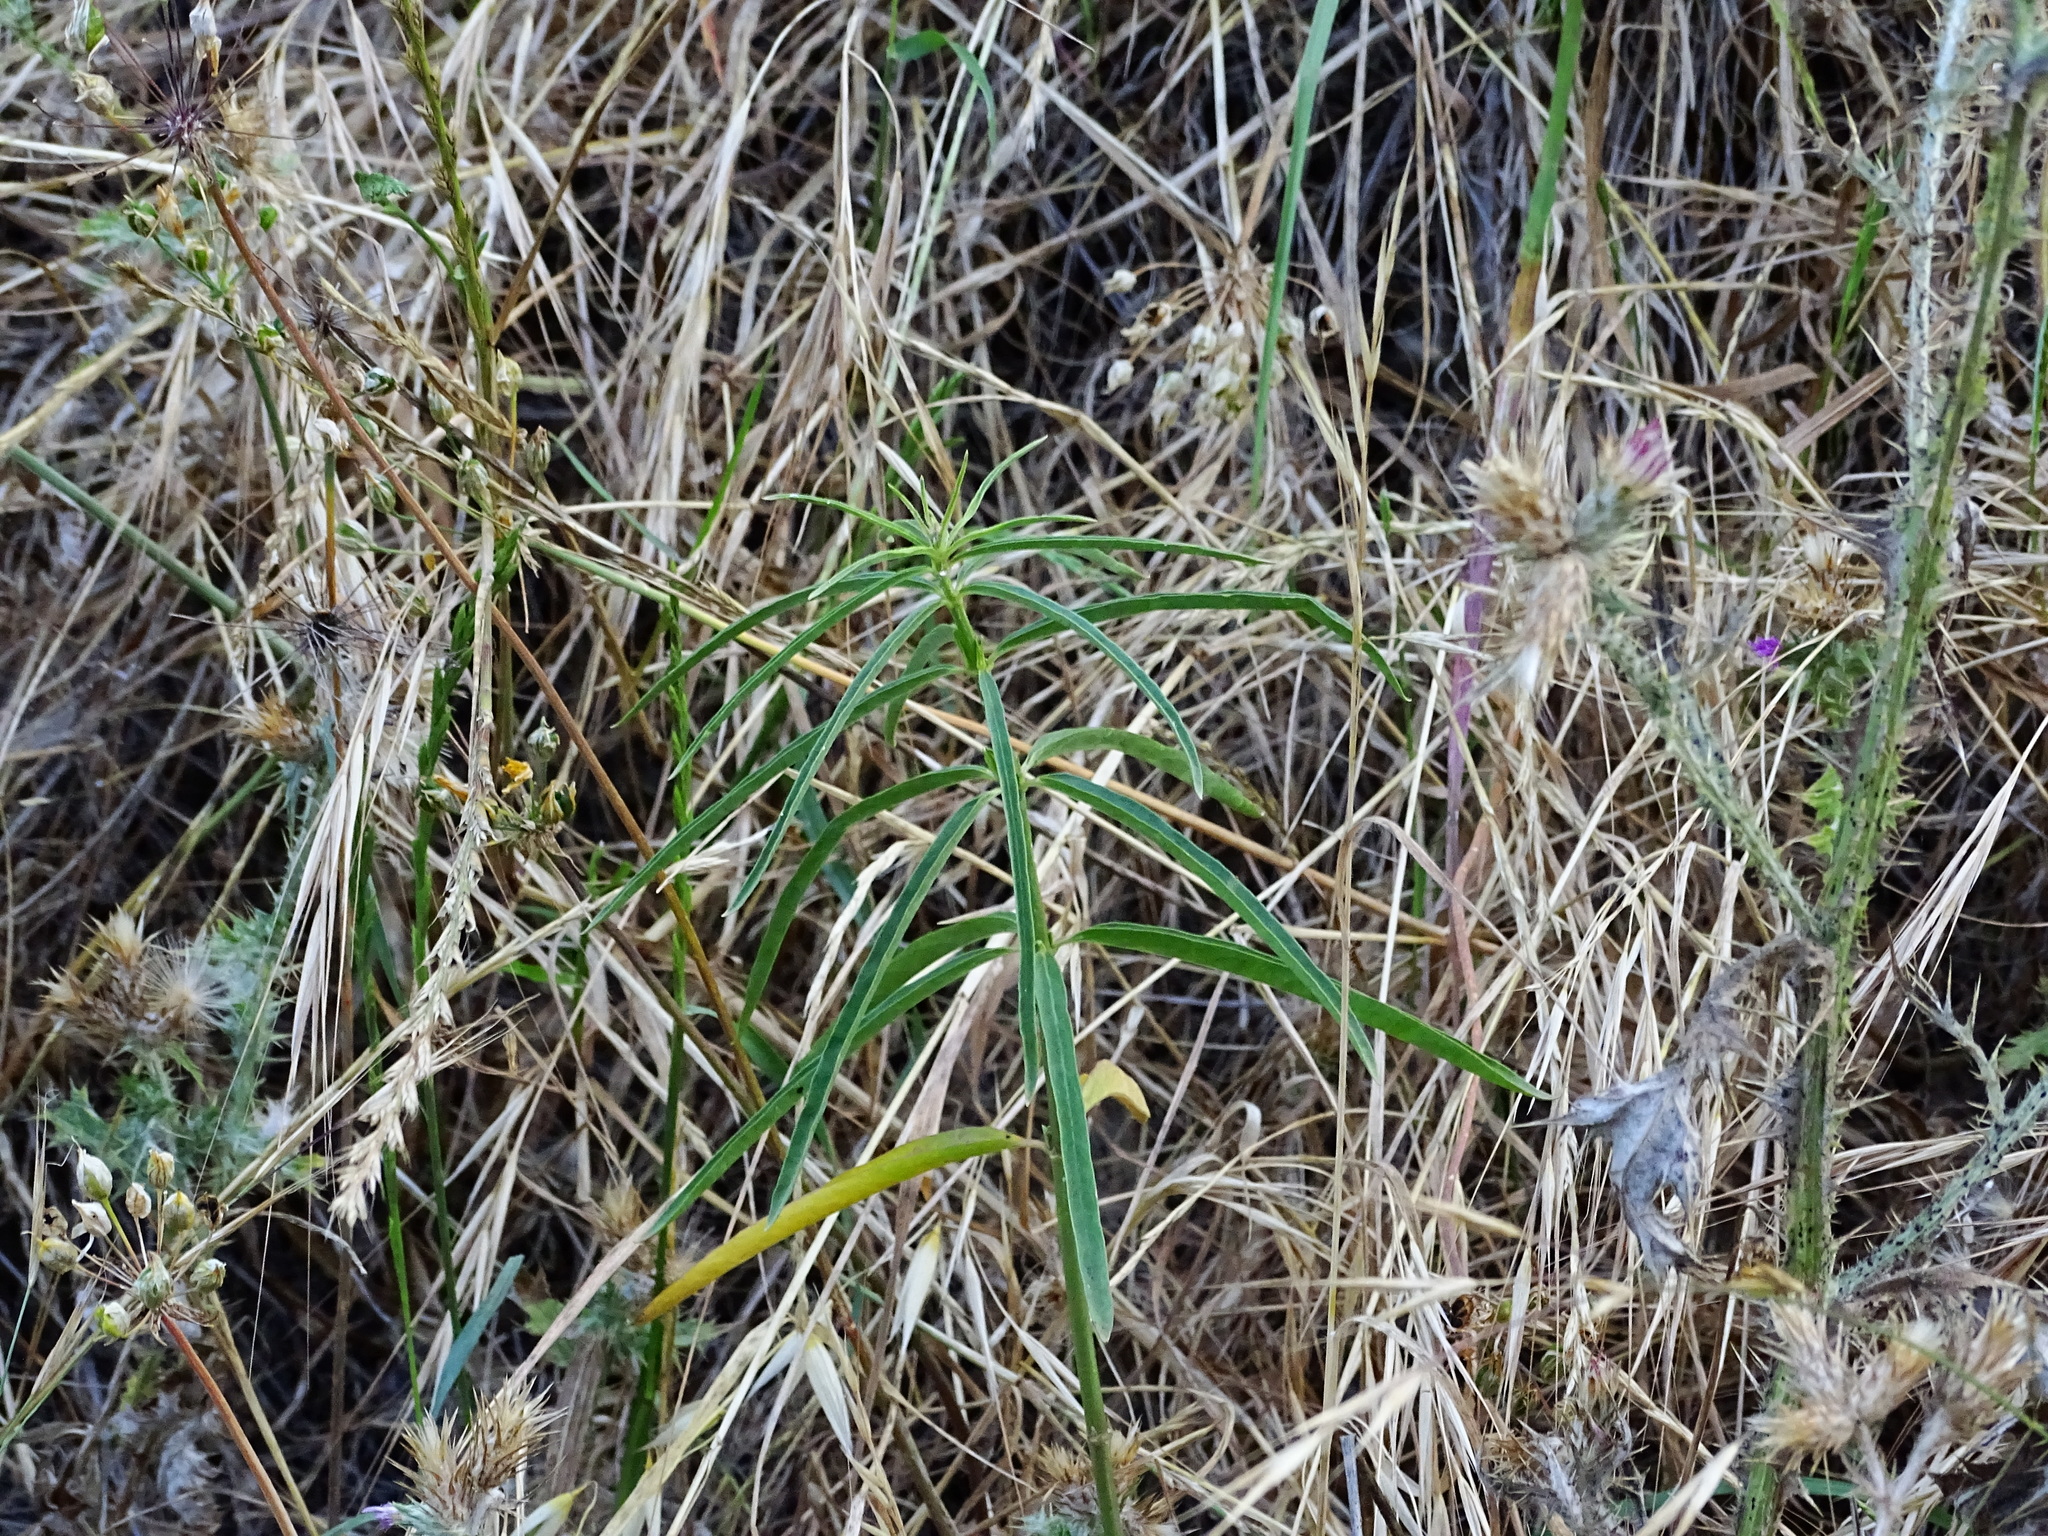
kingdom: Plantae
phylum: Tracheophyta
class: Magnoliopsida
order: Gentianales
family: Apocynaceae
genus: Asclepias
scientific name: Asclepias fascicularis
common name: Mexican milkweed
